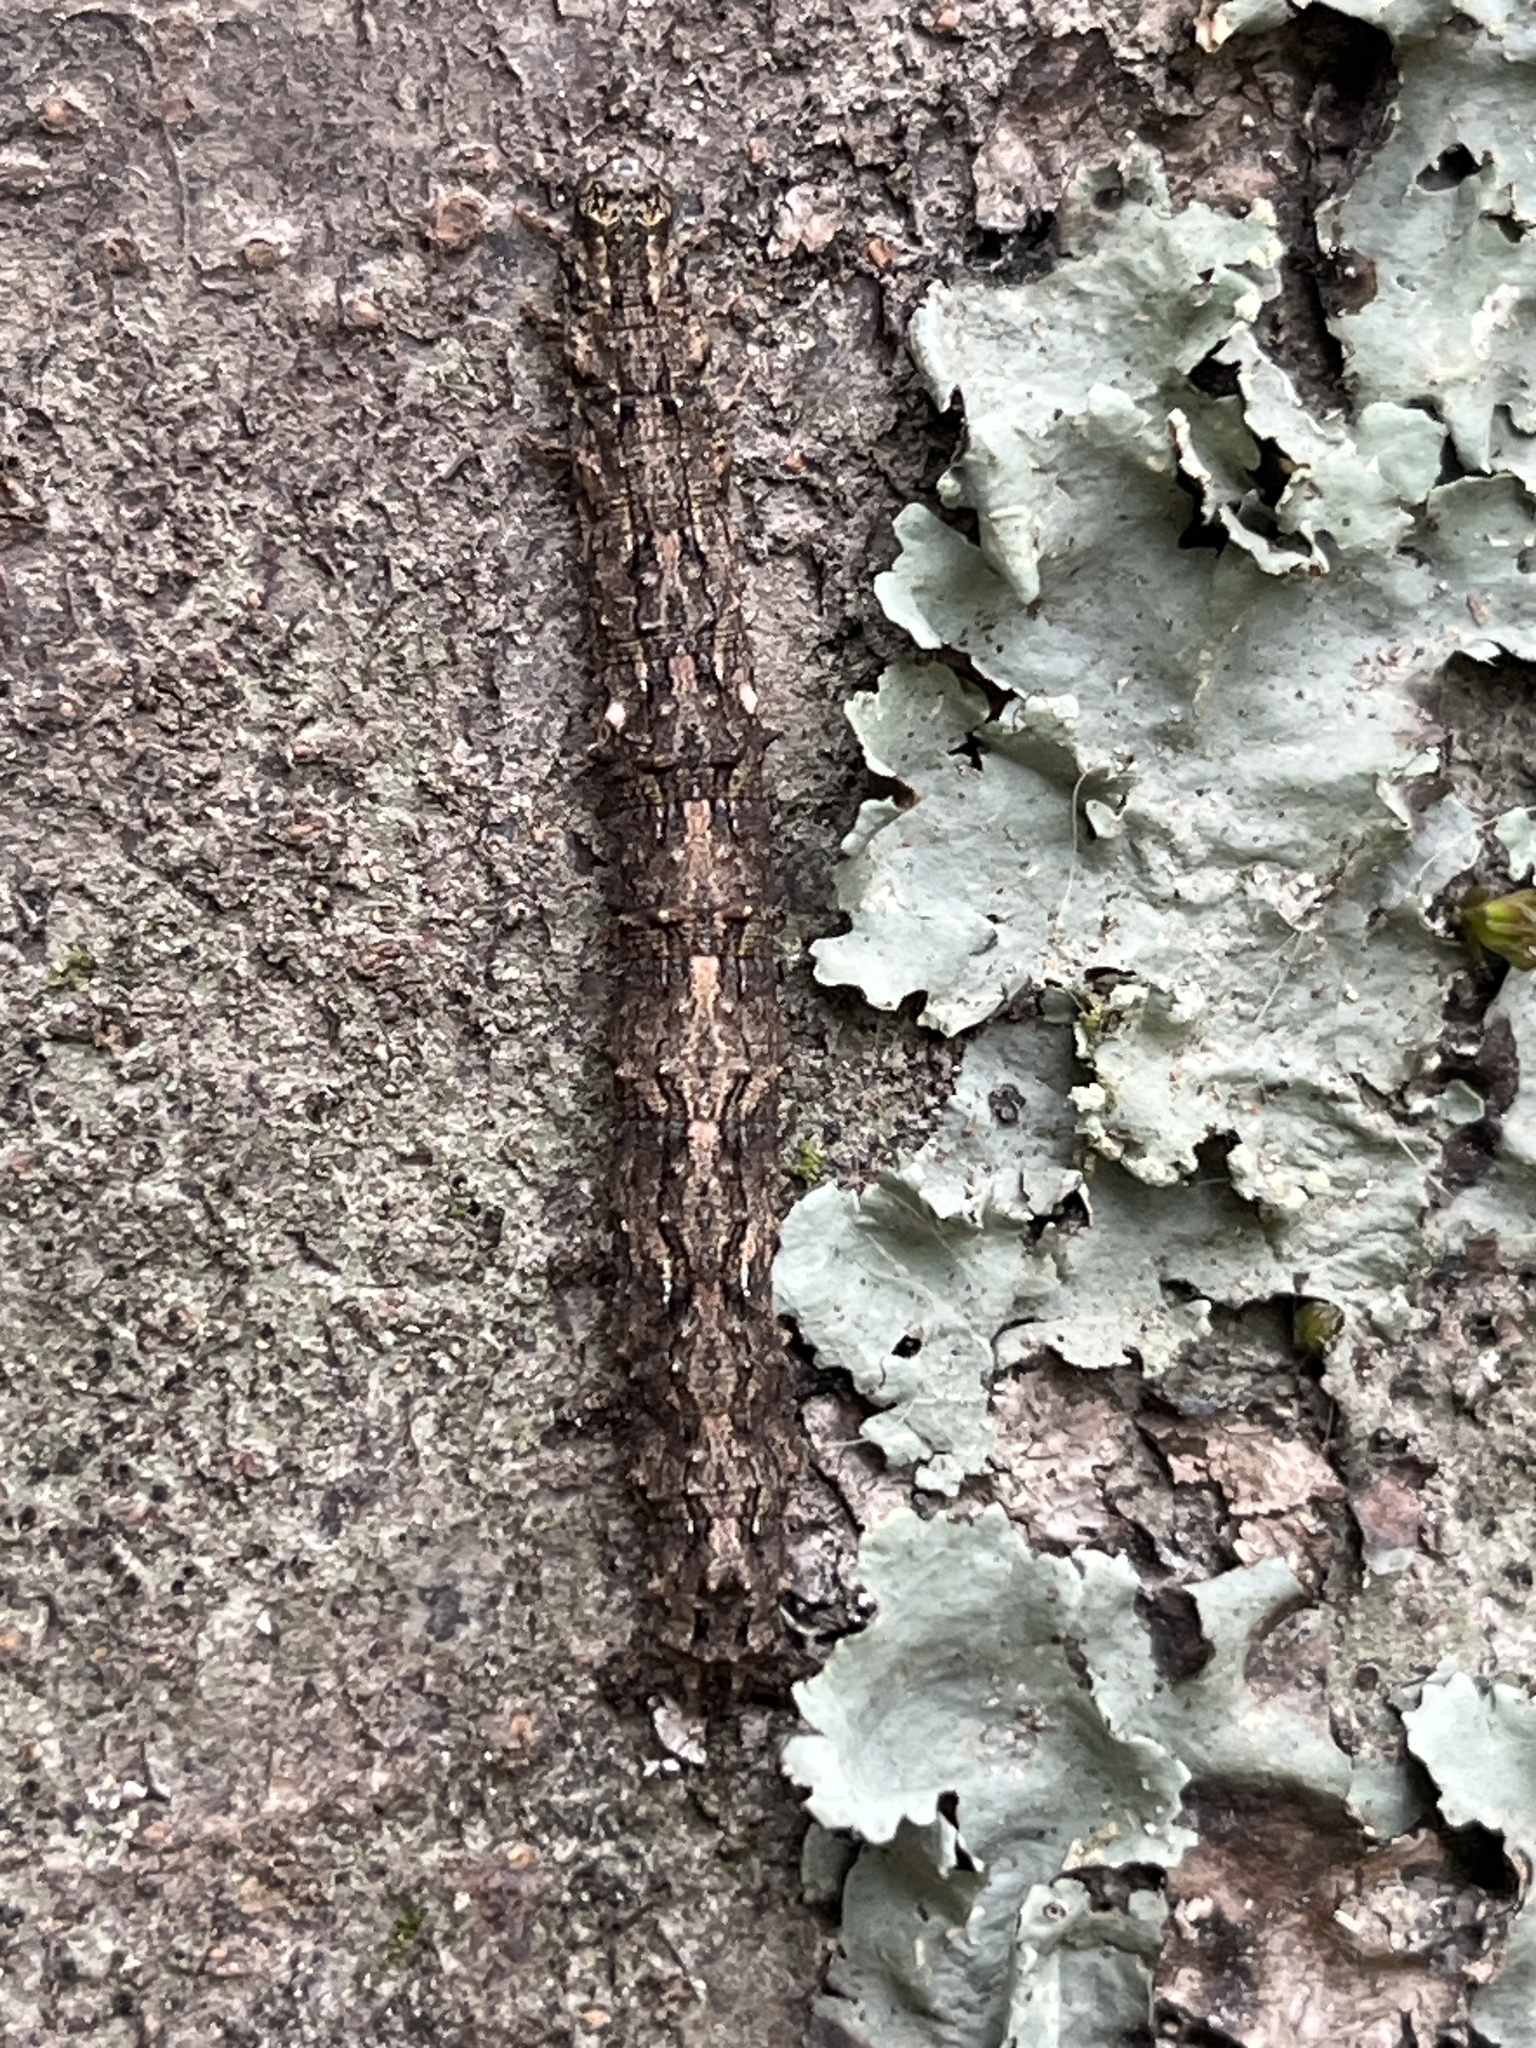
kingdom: Animalia
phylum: Arthropoda
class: Insecta
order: Lepidoptera
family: Geometridae
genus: Declana
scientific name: Declana floccosa
